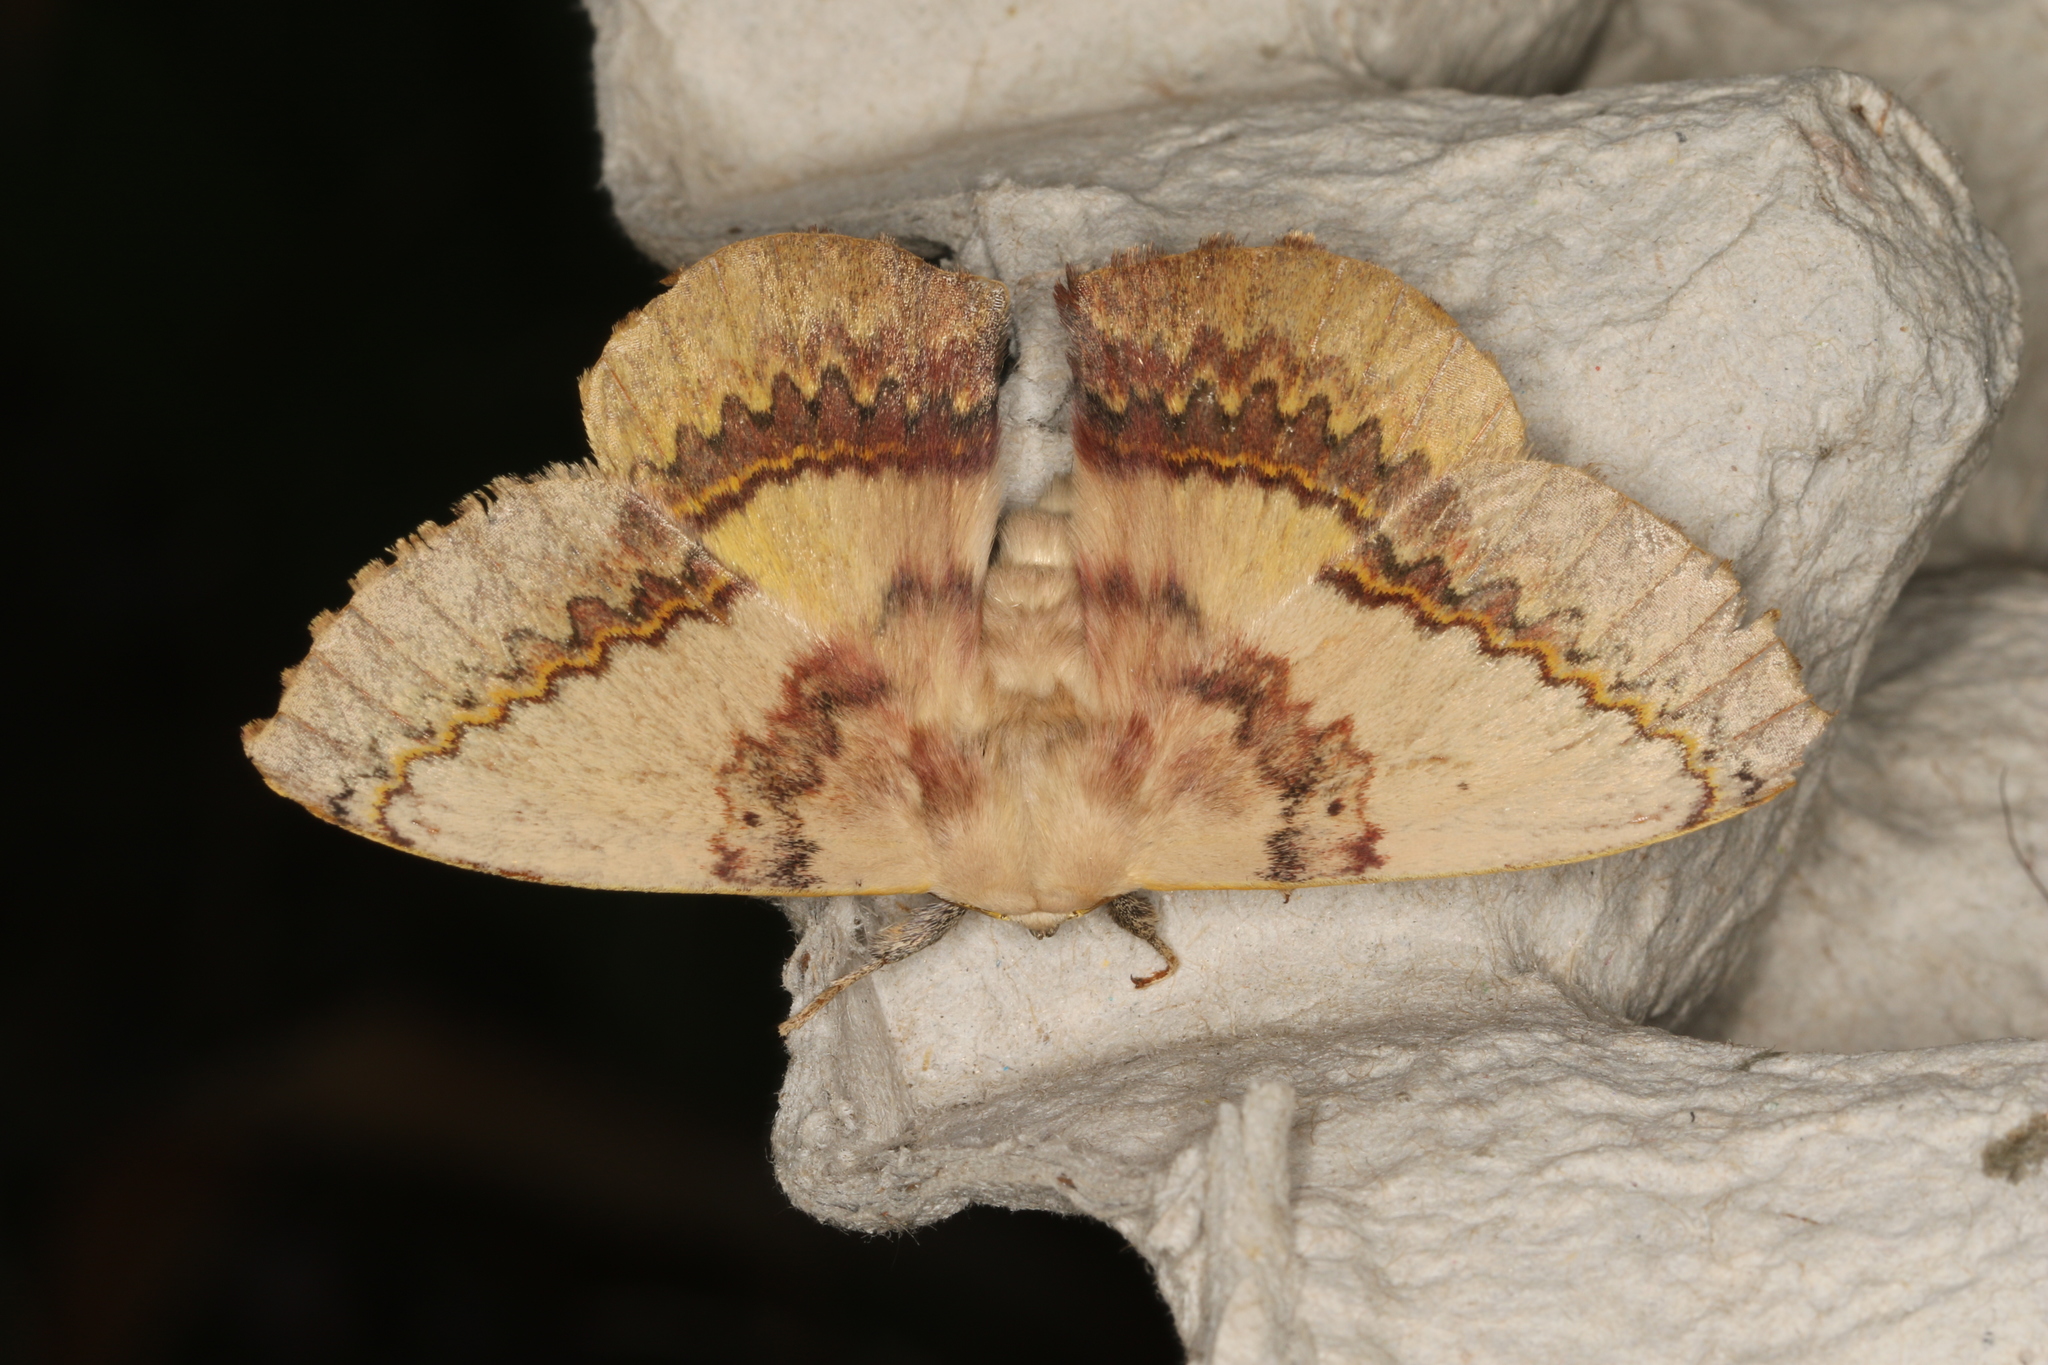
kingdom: Animalia
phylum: Arthropoda
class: Insecta
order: Lepidoptera
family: Anthelidae
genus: Anthela
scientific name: Anthela varia
